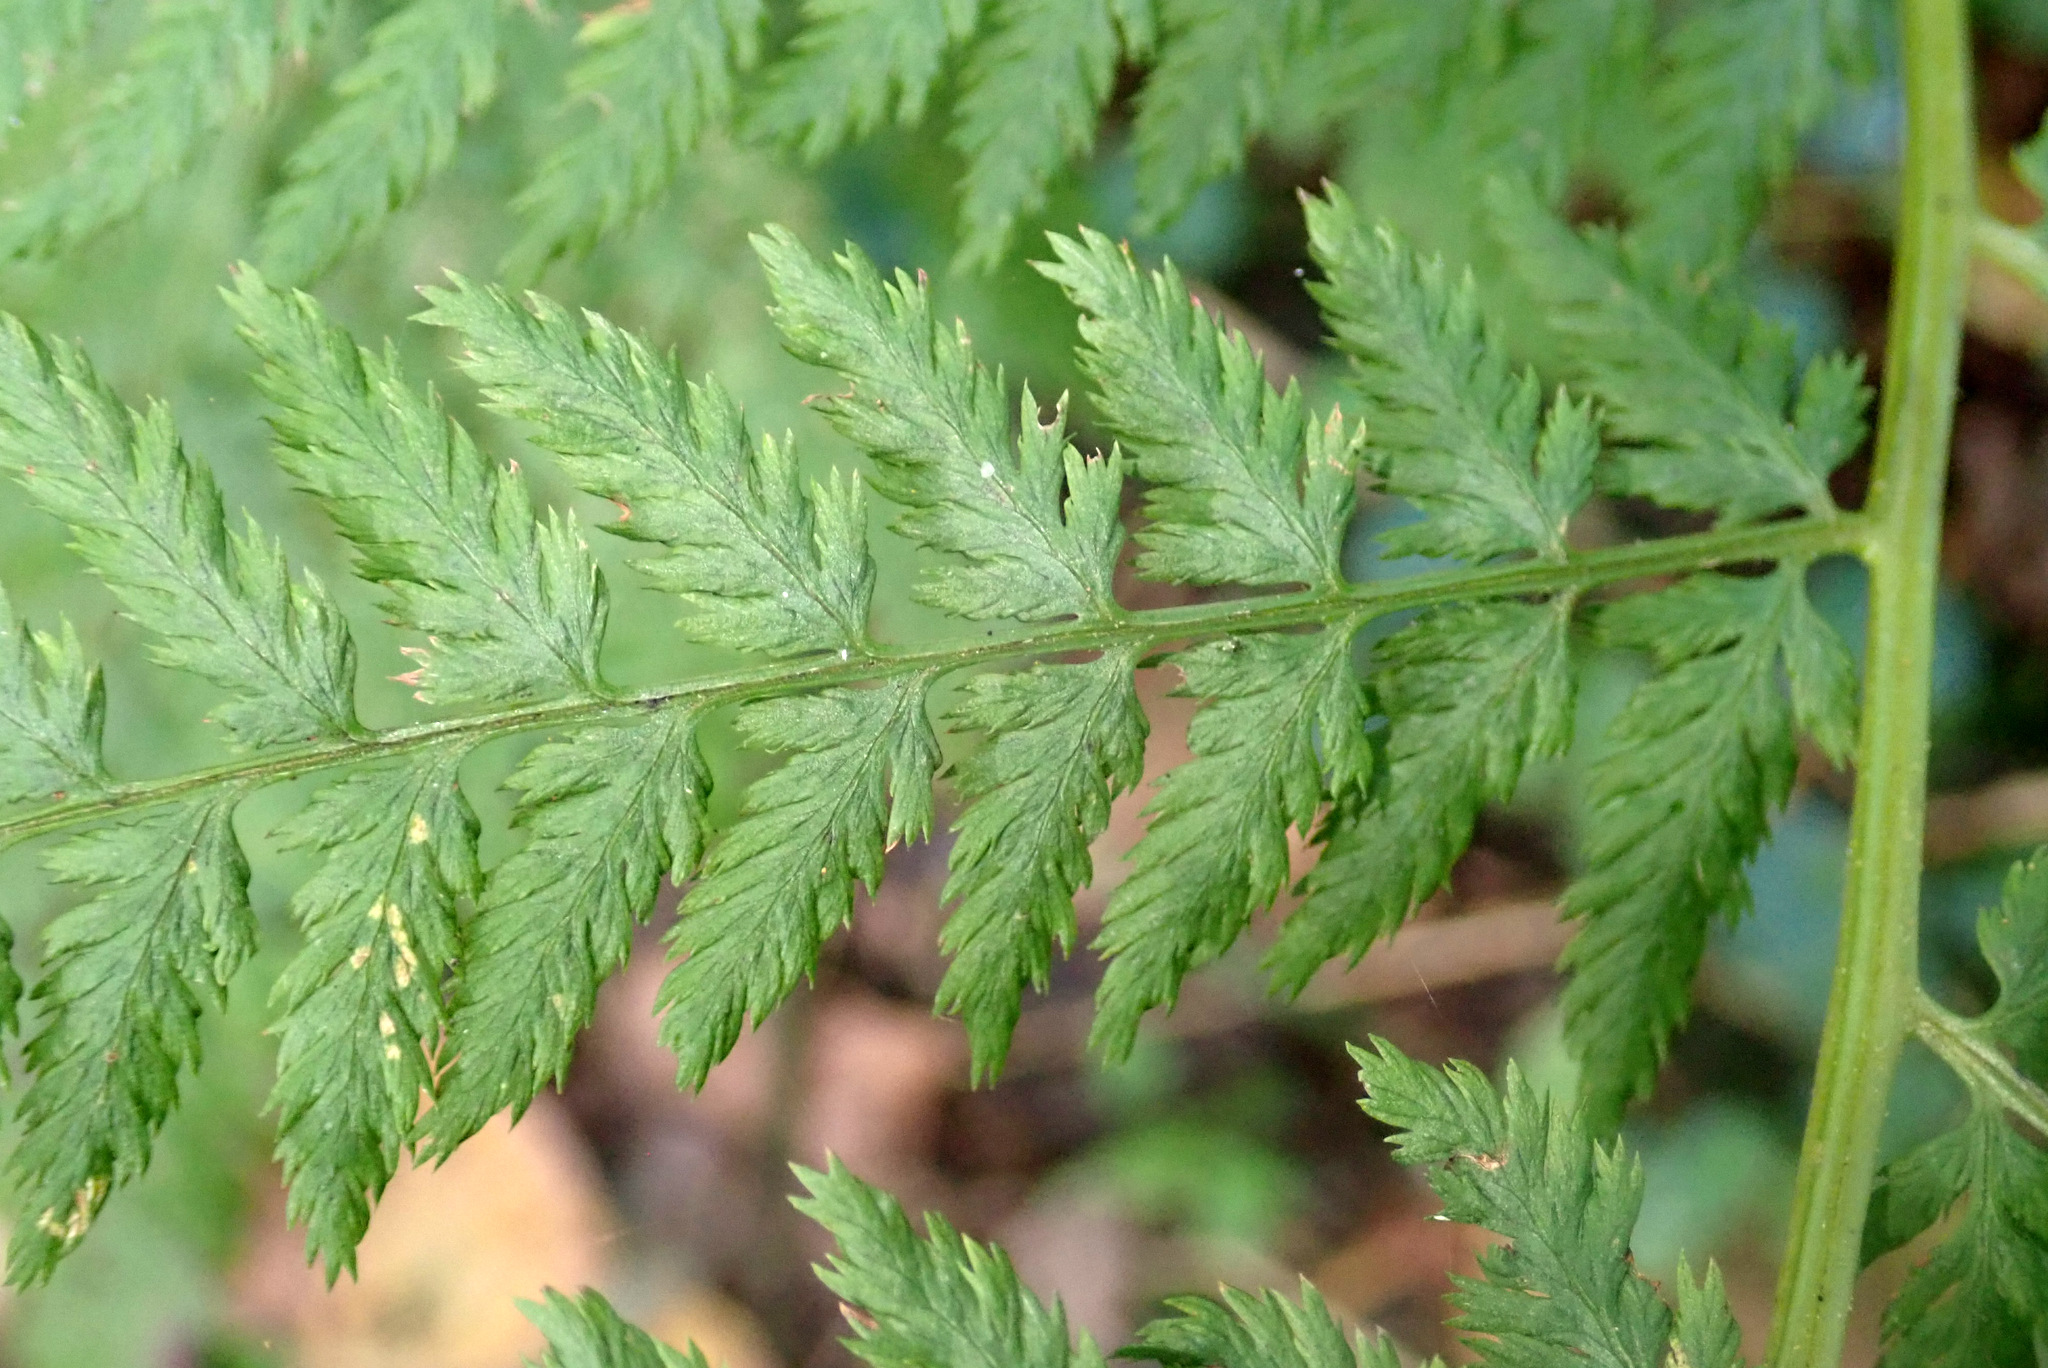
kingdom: Plantae
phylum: Tracheophyta
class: Polypodiopsida
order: Polypodiales
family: Athyriaceae
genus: Athyrium
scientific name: Athyrium filix-femina
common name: Lady fern
